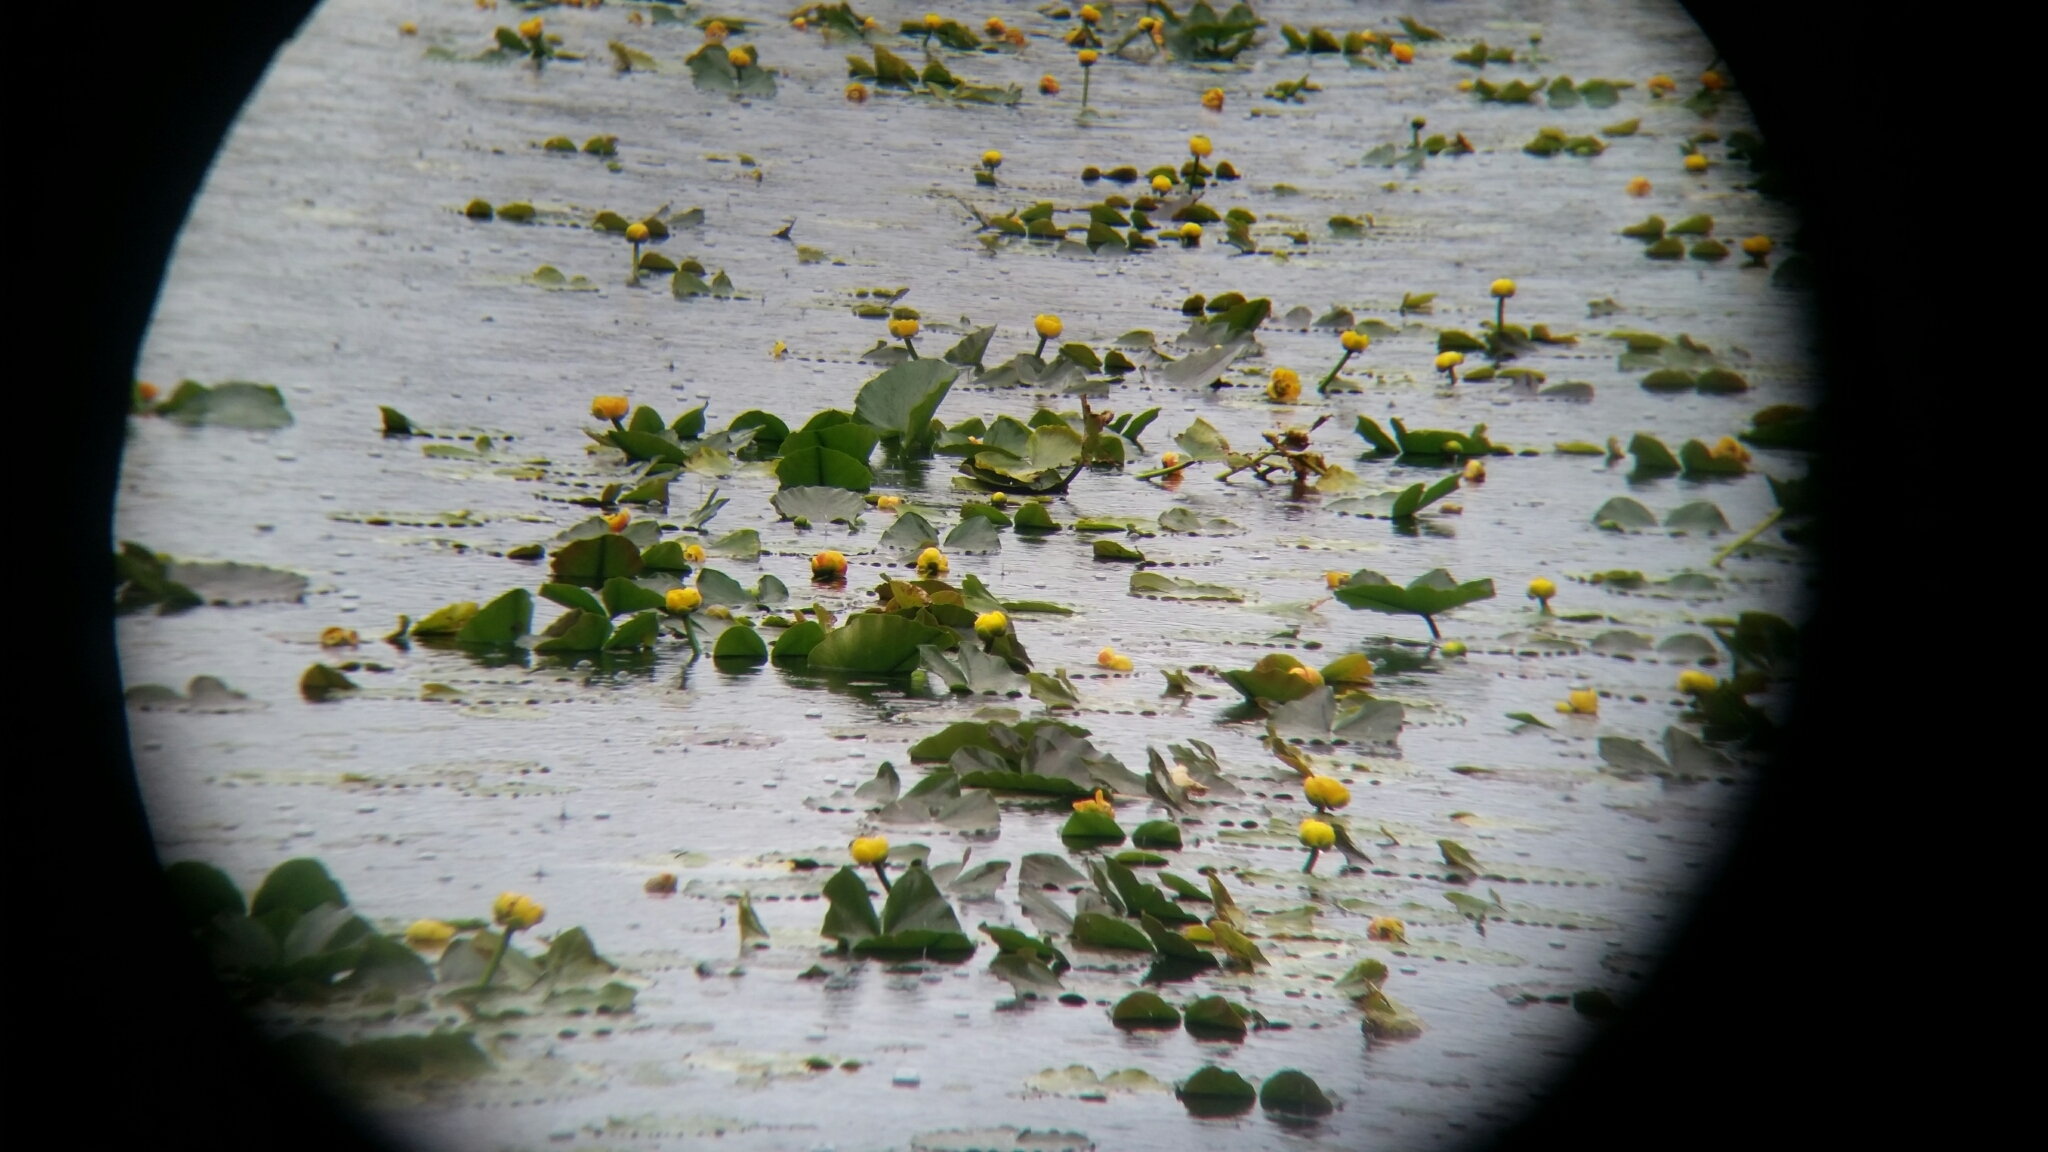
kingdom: Plantae
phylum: Tracheophyta
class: Magnoliopsida
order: Nymphaeales
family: Nymphaeaceae
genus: Nuphar
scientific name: Nuphar polysepala
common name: Rocky mountain cow-lily
